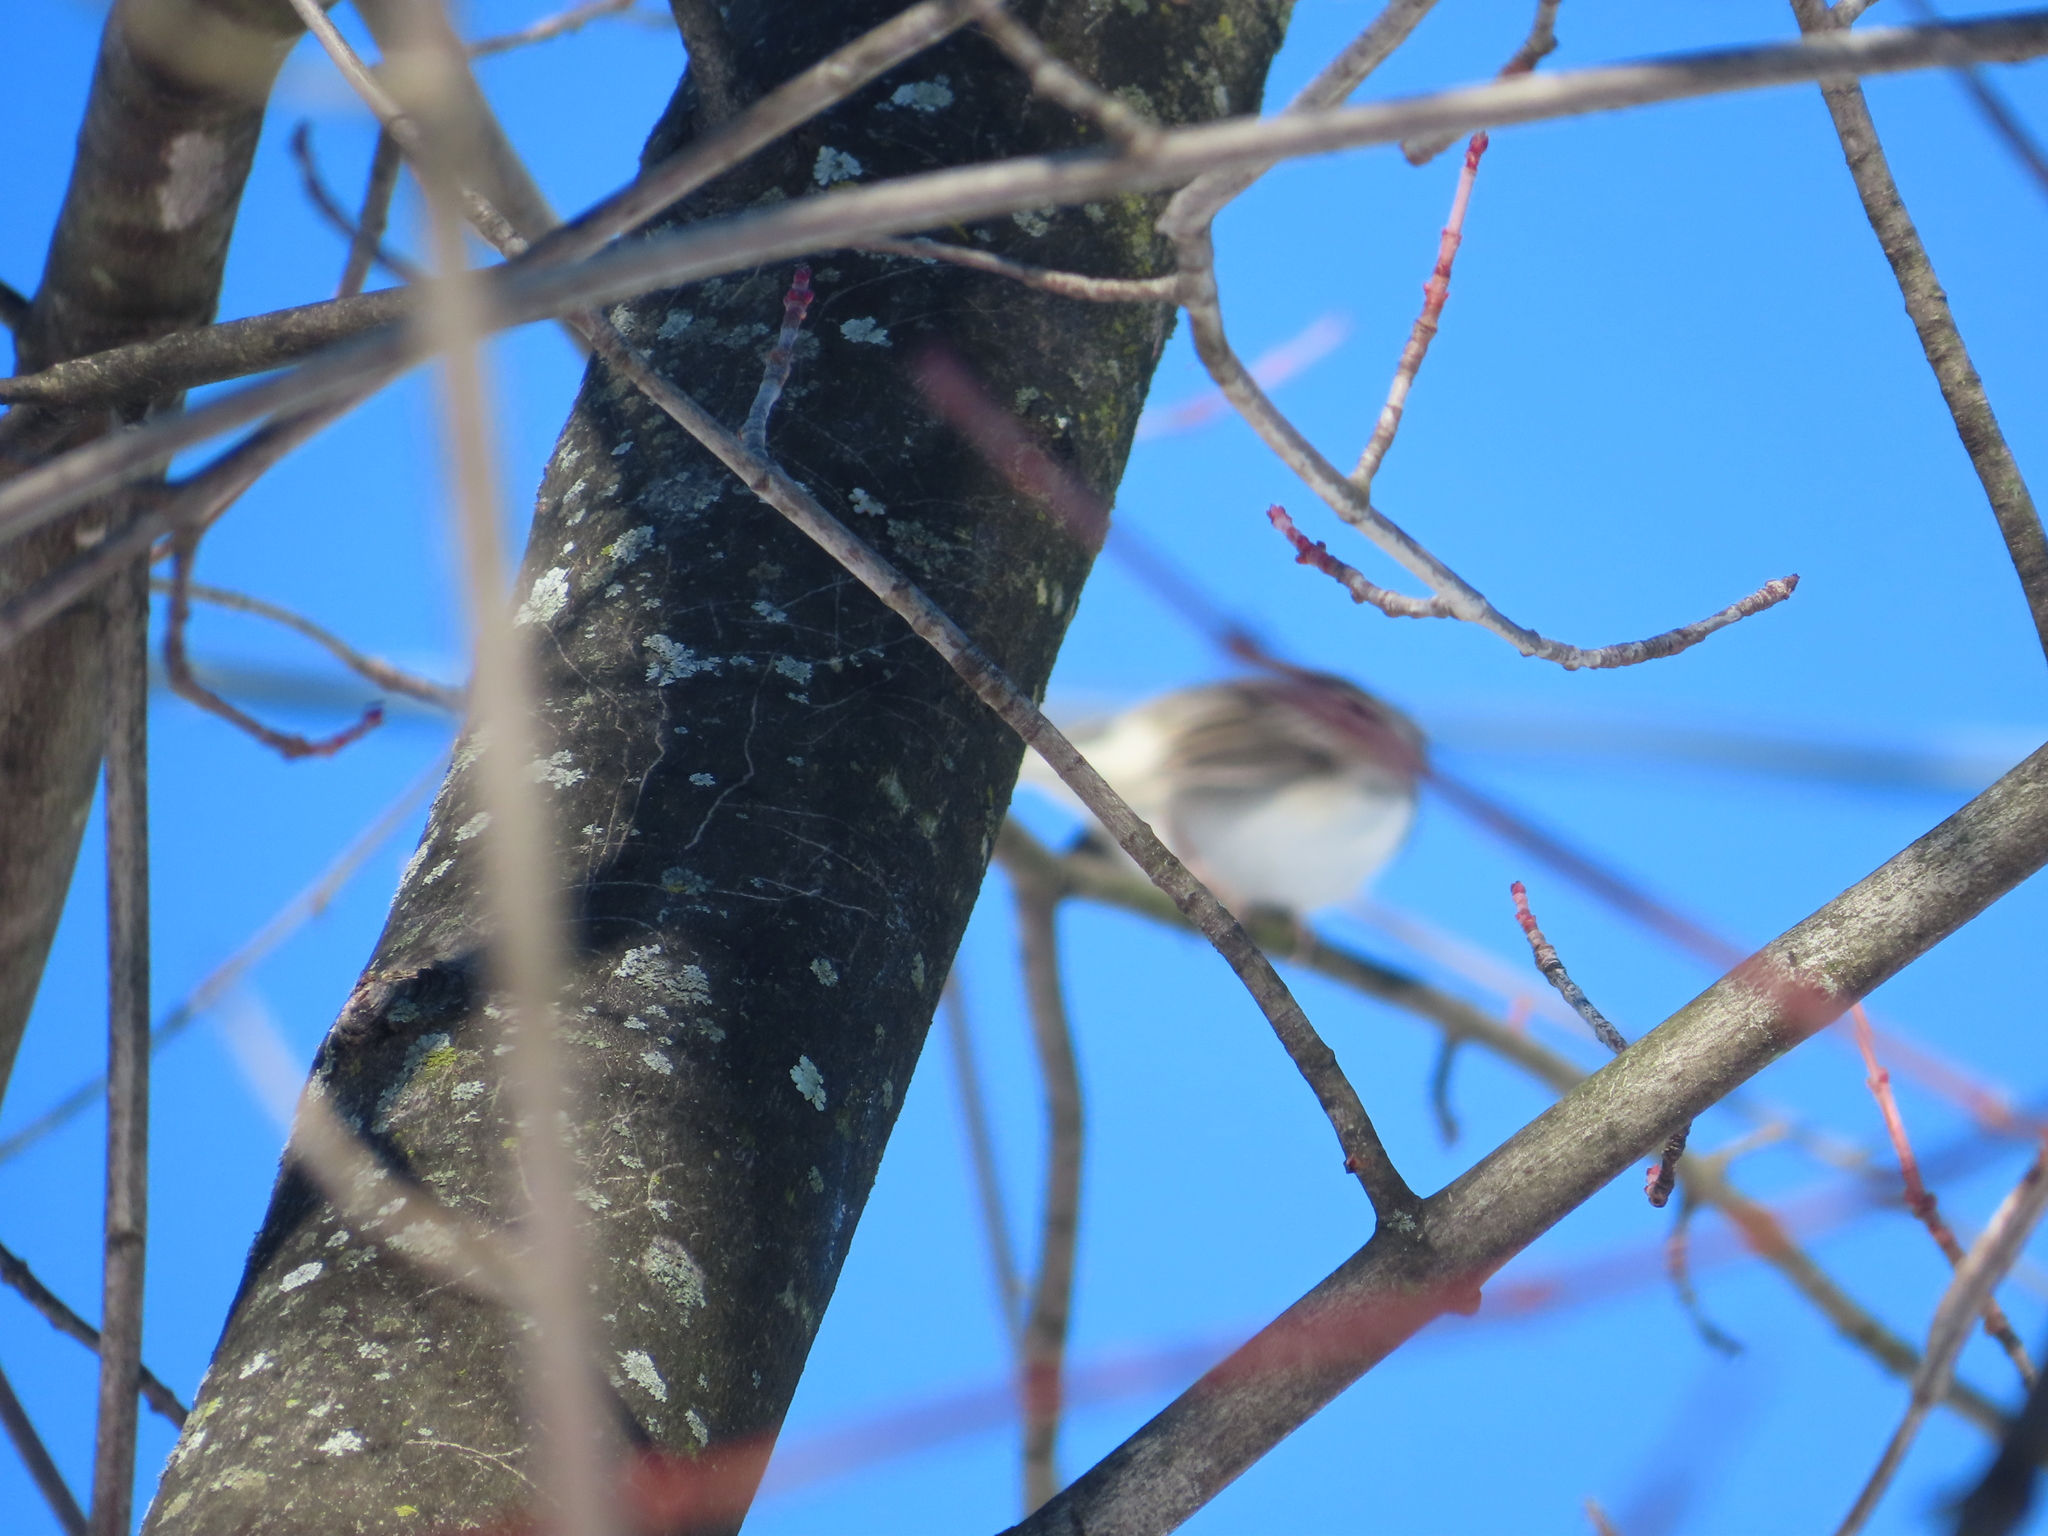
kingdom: Animalia
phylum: Chordata
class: Aves
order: Passeriformes
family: Passerellidae
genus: Junco
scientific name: Junco hyemalis
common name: Dark-eyed junco
